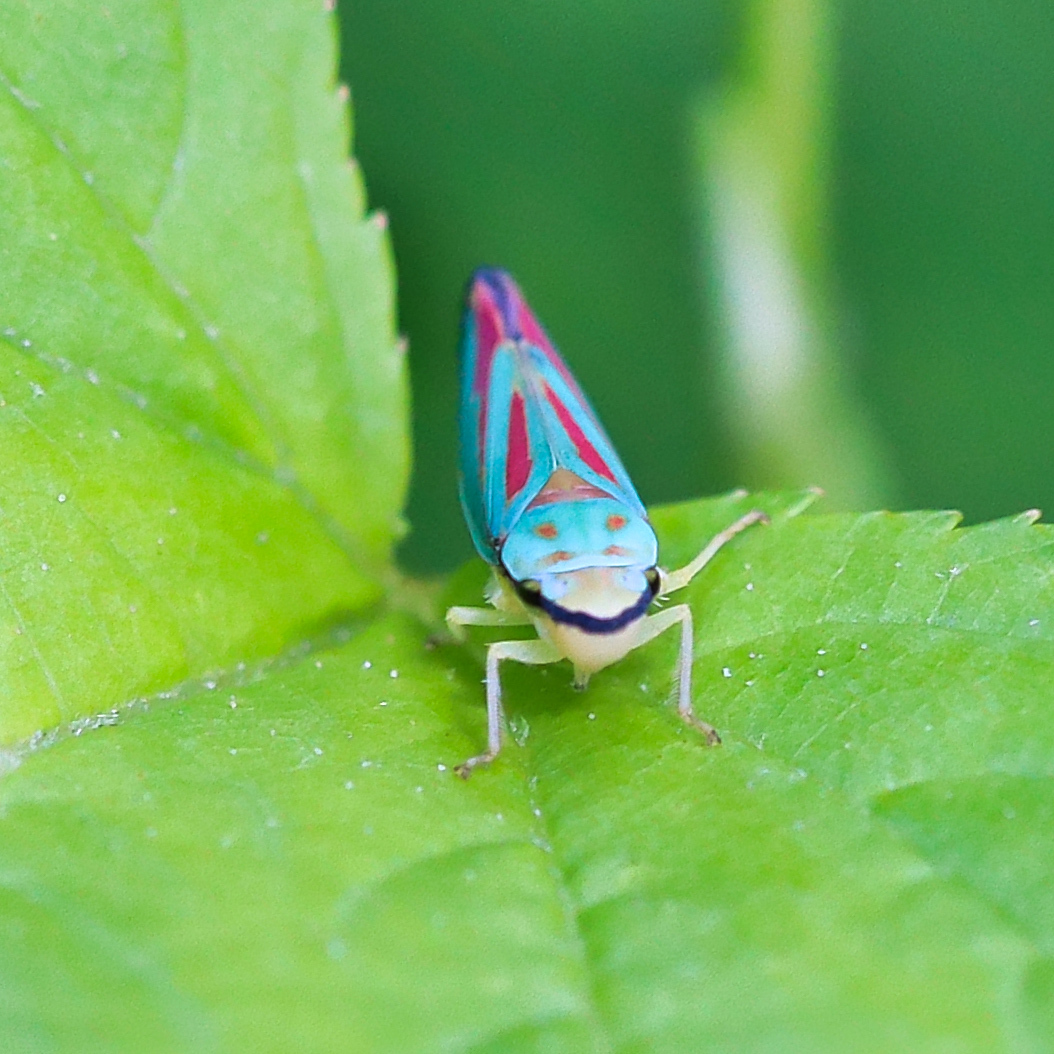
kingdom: Animalia
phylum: Arthropoda
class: Insecta
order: Hemiptera
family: Cicadellidae
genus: Graphocephala
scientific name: Graphocephala fennahi
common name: Rhododendron leafhopper
